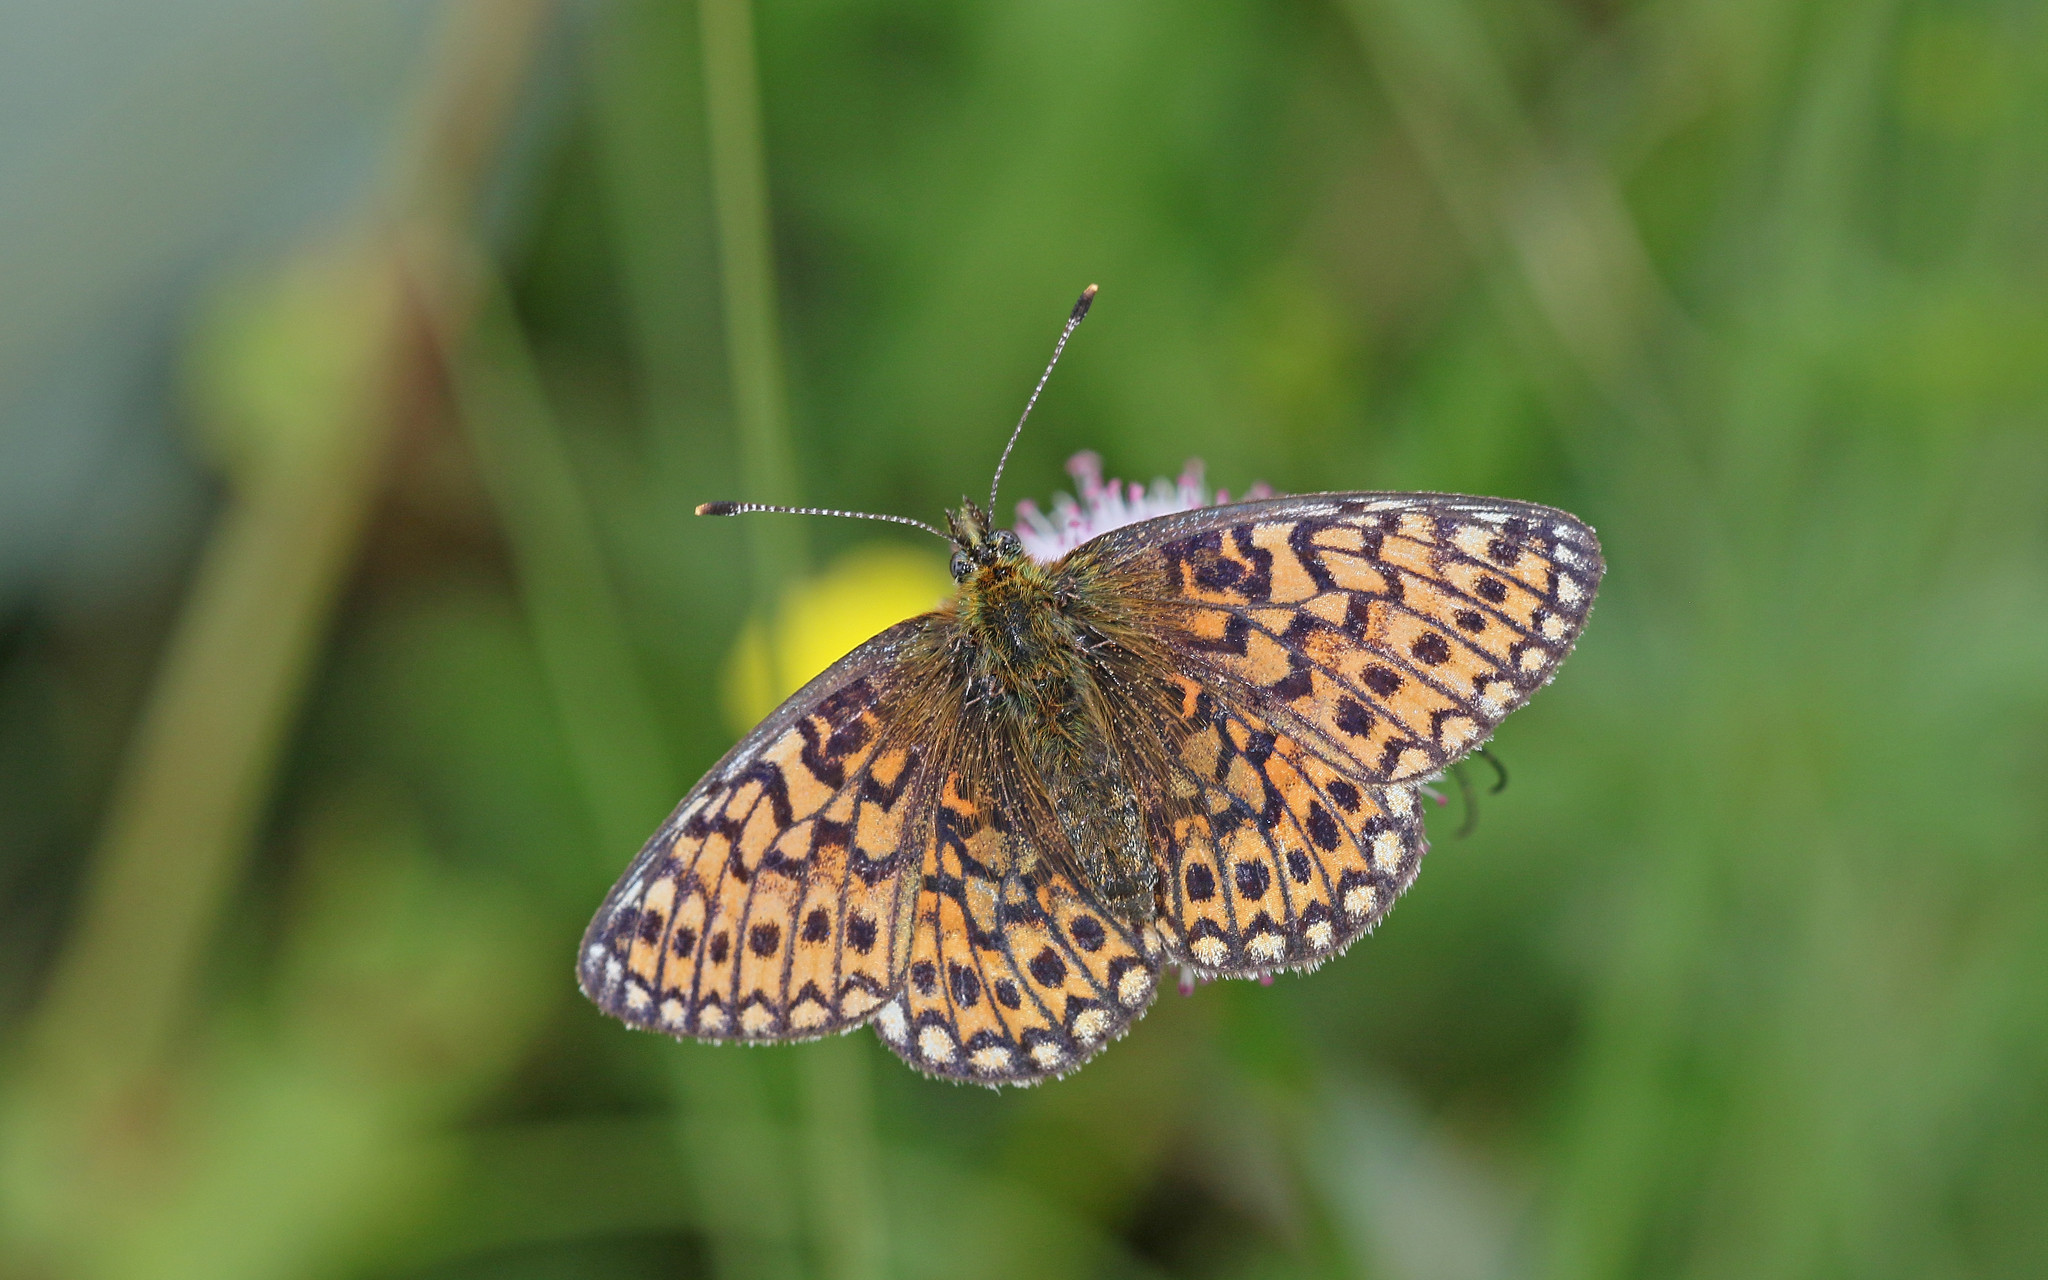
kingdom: Animalia
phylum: Arthropoda
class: Insecta
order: Lepidoptera
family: Nymphalidae
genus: Boloria
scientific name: Boloria eunomia
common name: Bog fritillary
